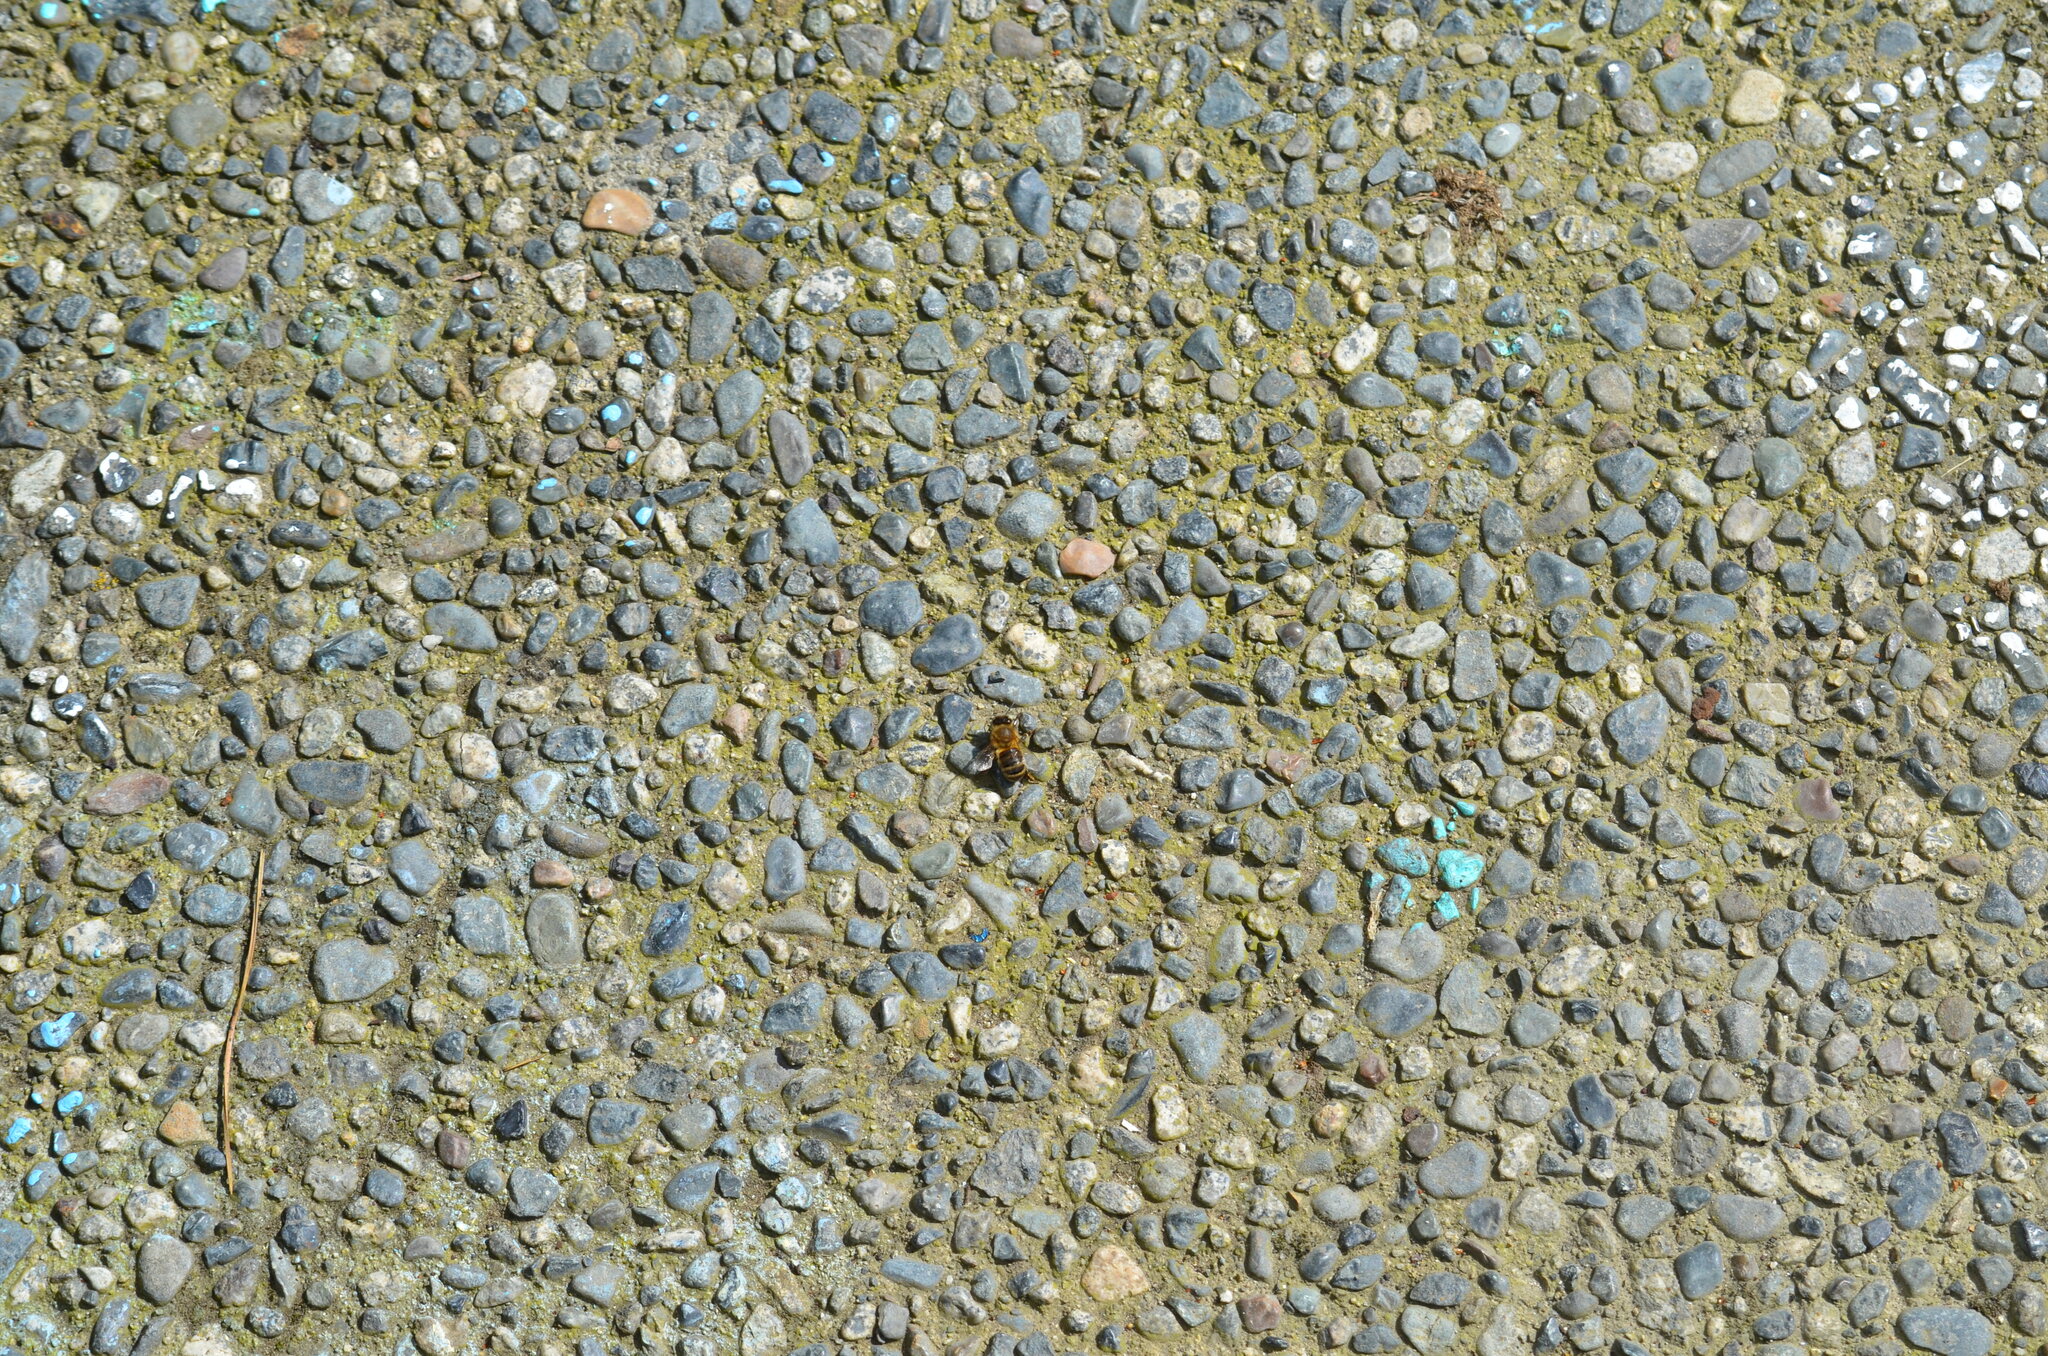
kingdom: Animalia
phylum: Arthropoda
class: Insecta
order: Hymenoptera
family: Apidae
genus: Apis
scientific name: Apis mellifera
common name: Honey bee
